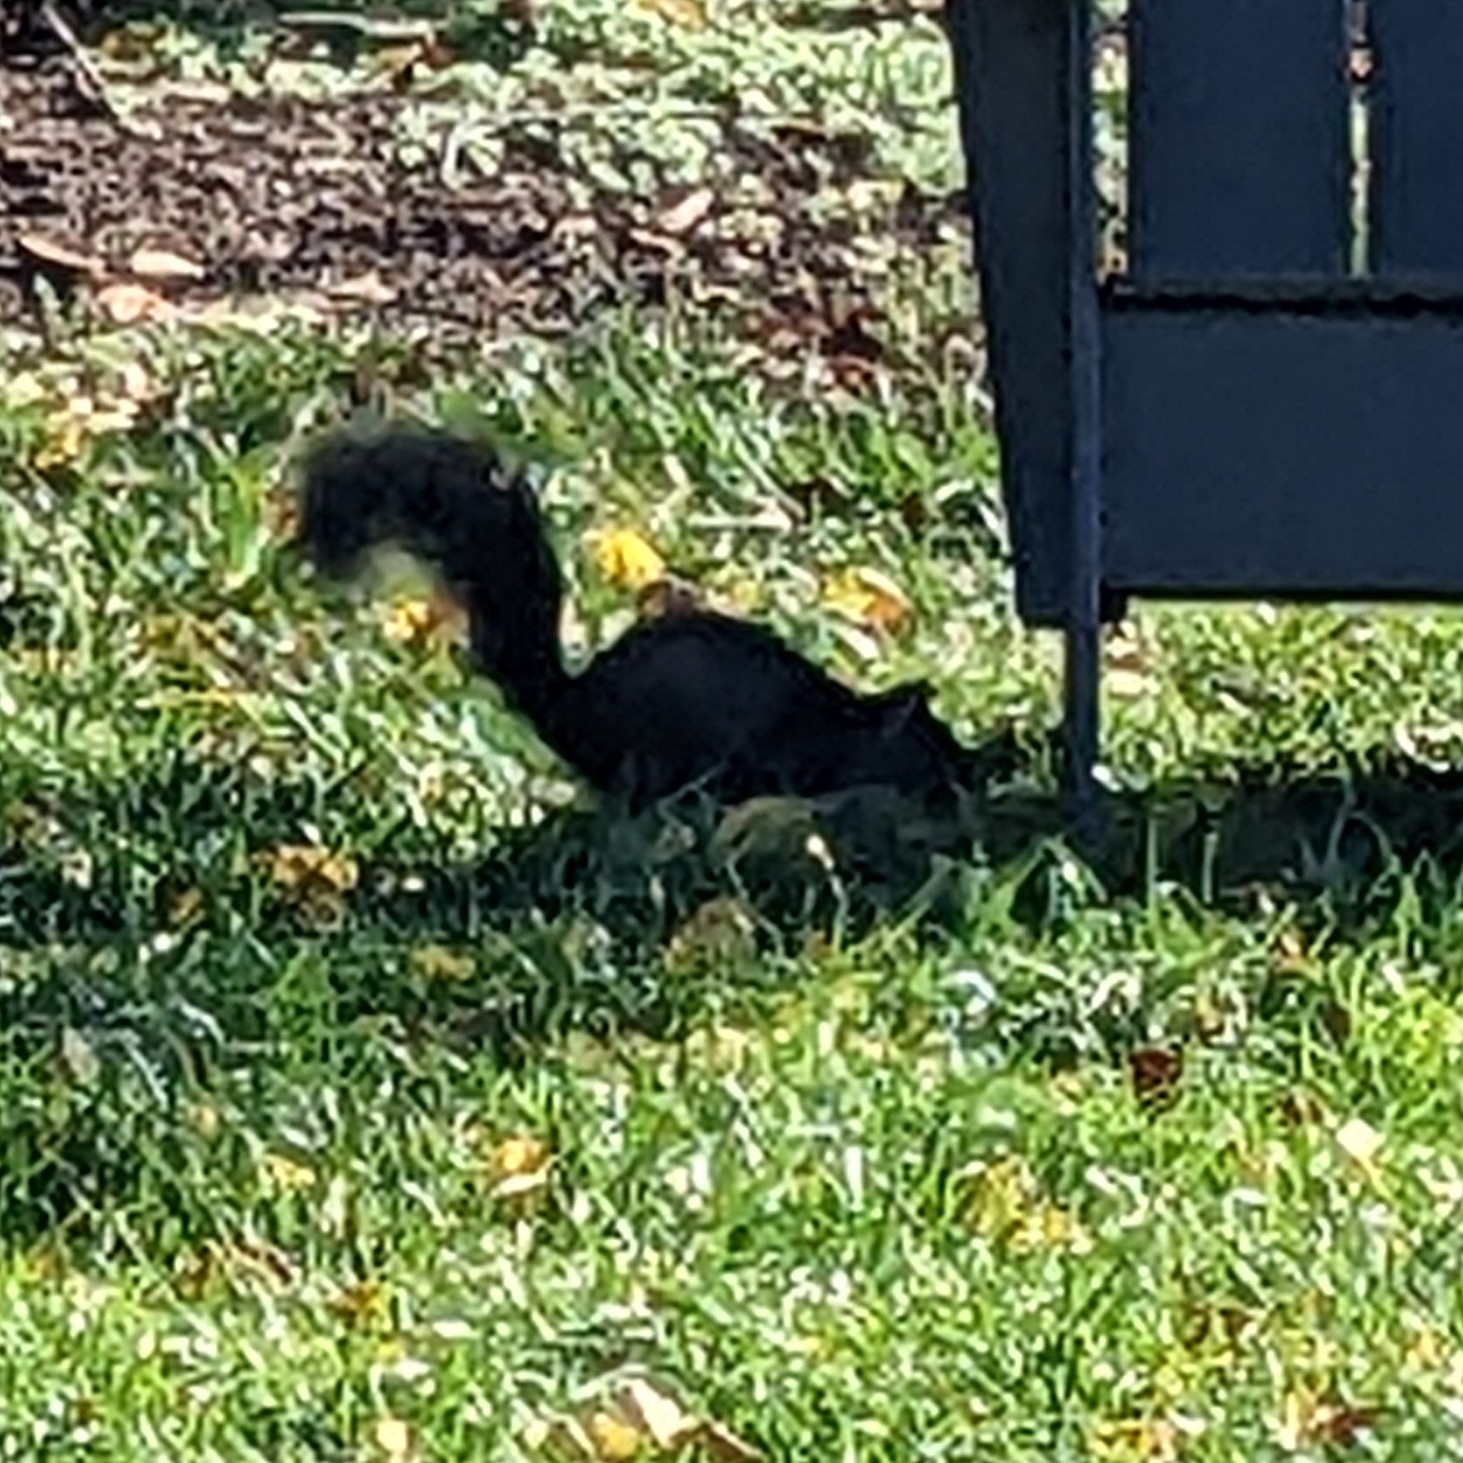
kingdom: Animalia
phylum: Chordata
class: Mammalia
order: Rodentia
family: Sciuridae
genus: Sciurus
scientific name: Sciurus carolinensis
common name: Eastern gray squirrel
